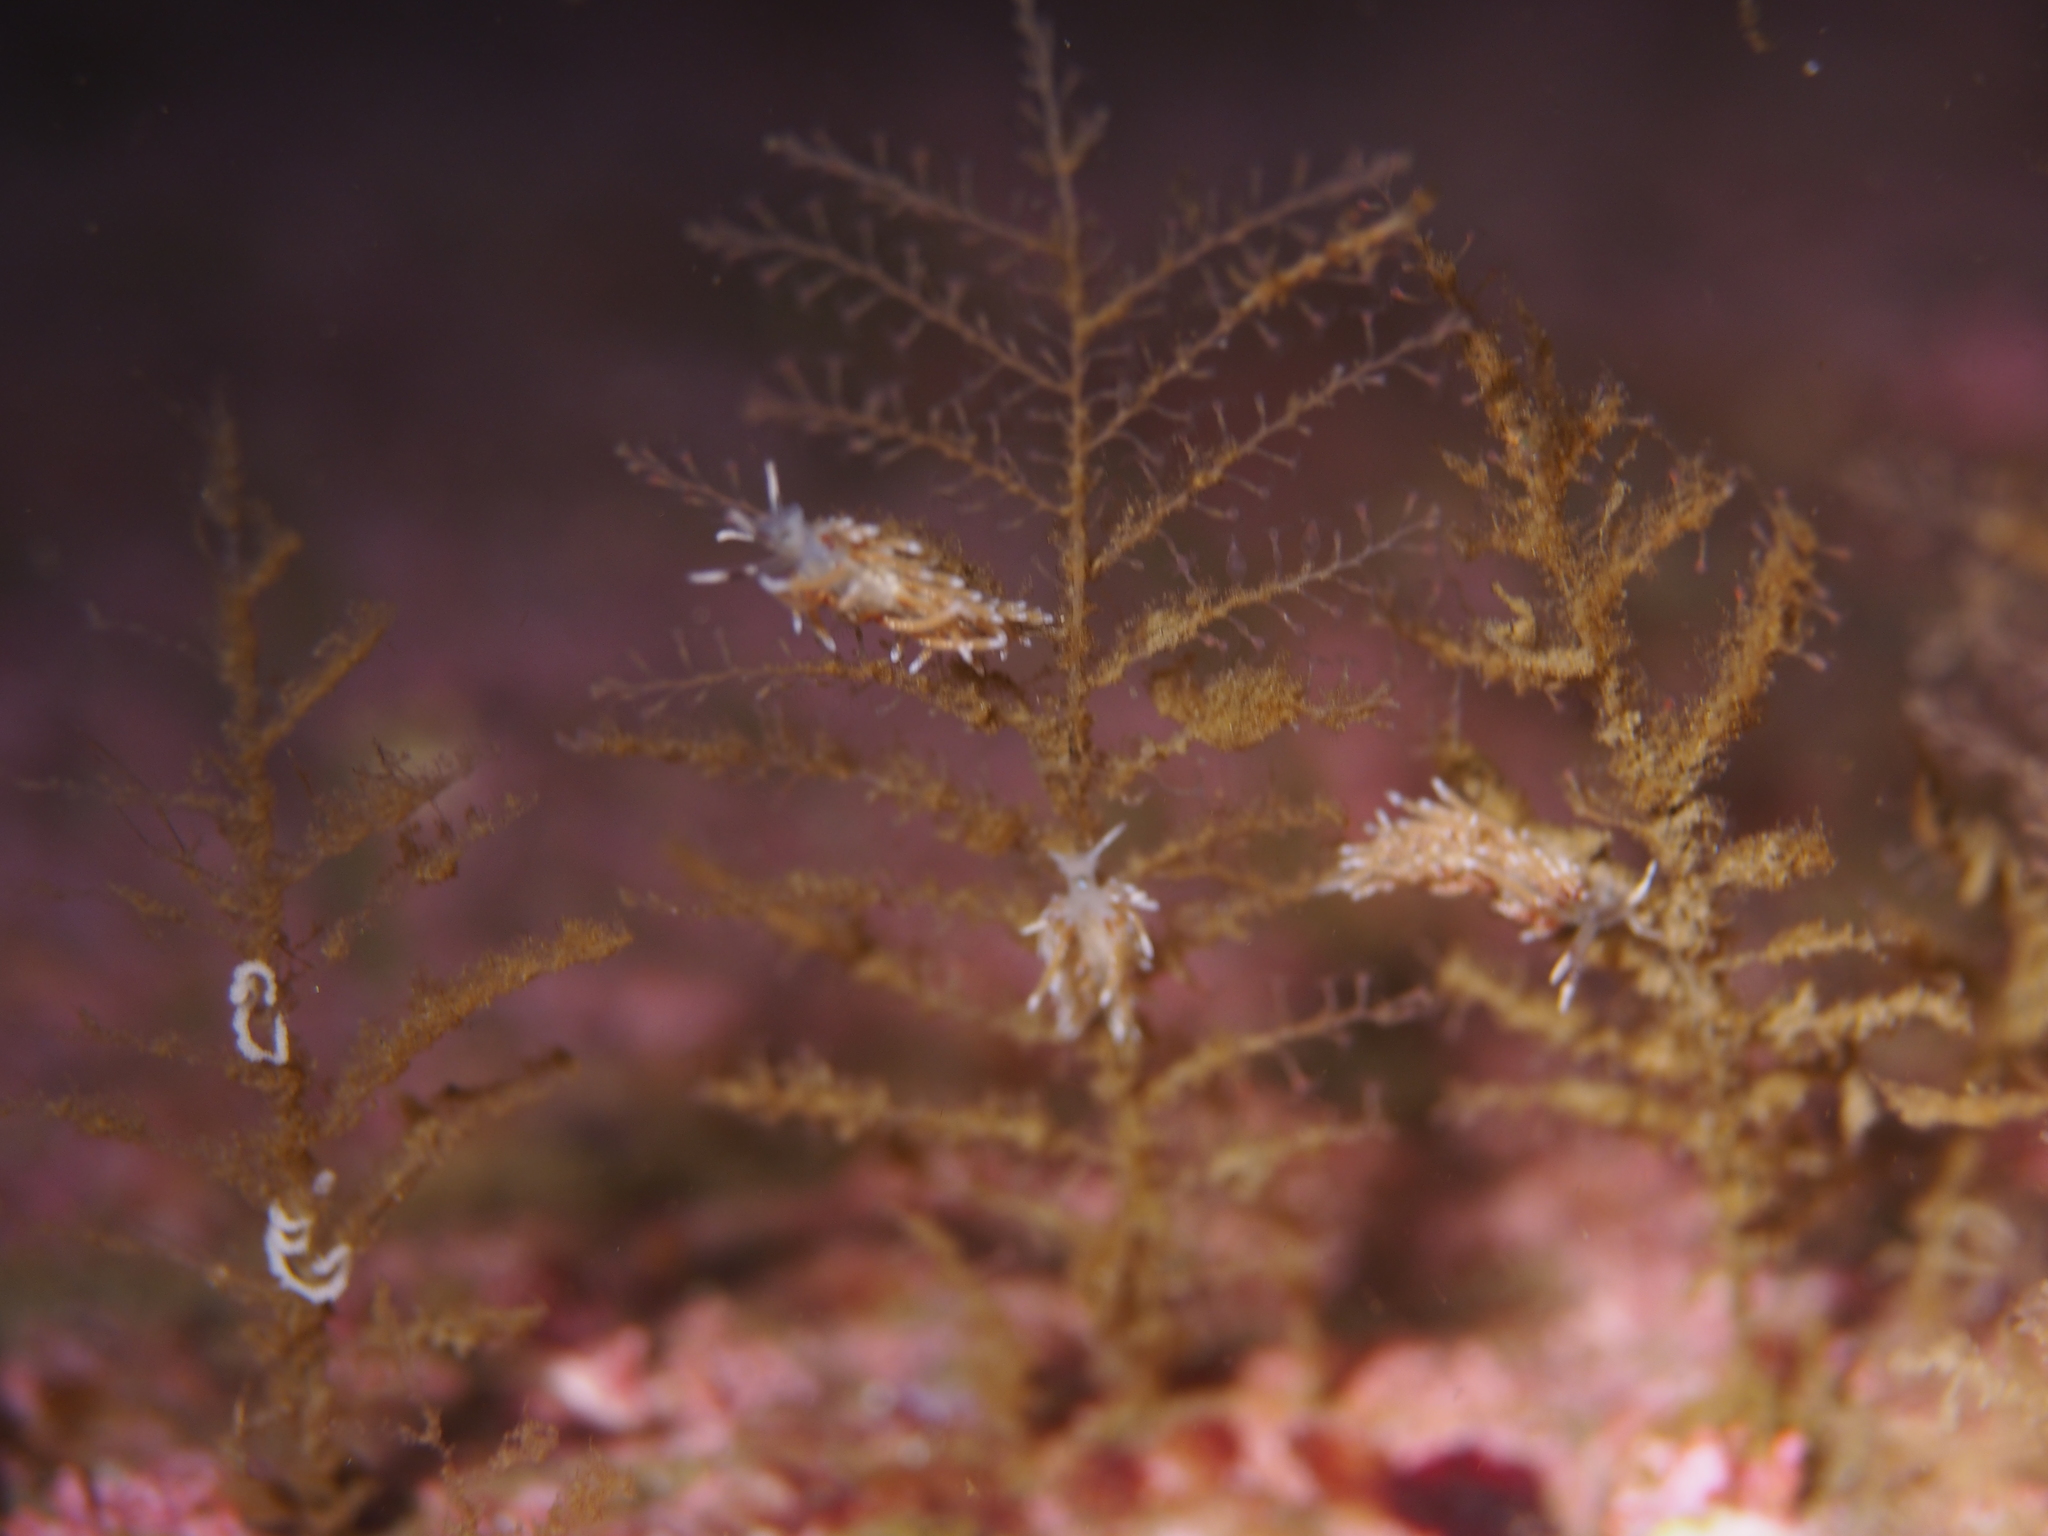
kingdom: Animalia
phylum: Mollusca
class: Gastropoda
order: Nudibranchia
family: Trinchesiidae
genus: Rubramoena
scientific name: Rubramoena rubescens
